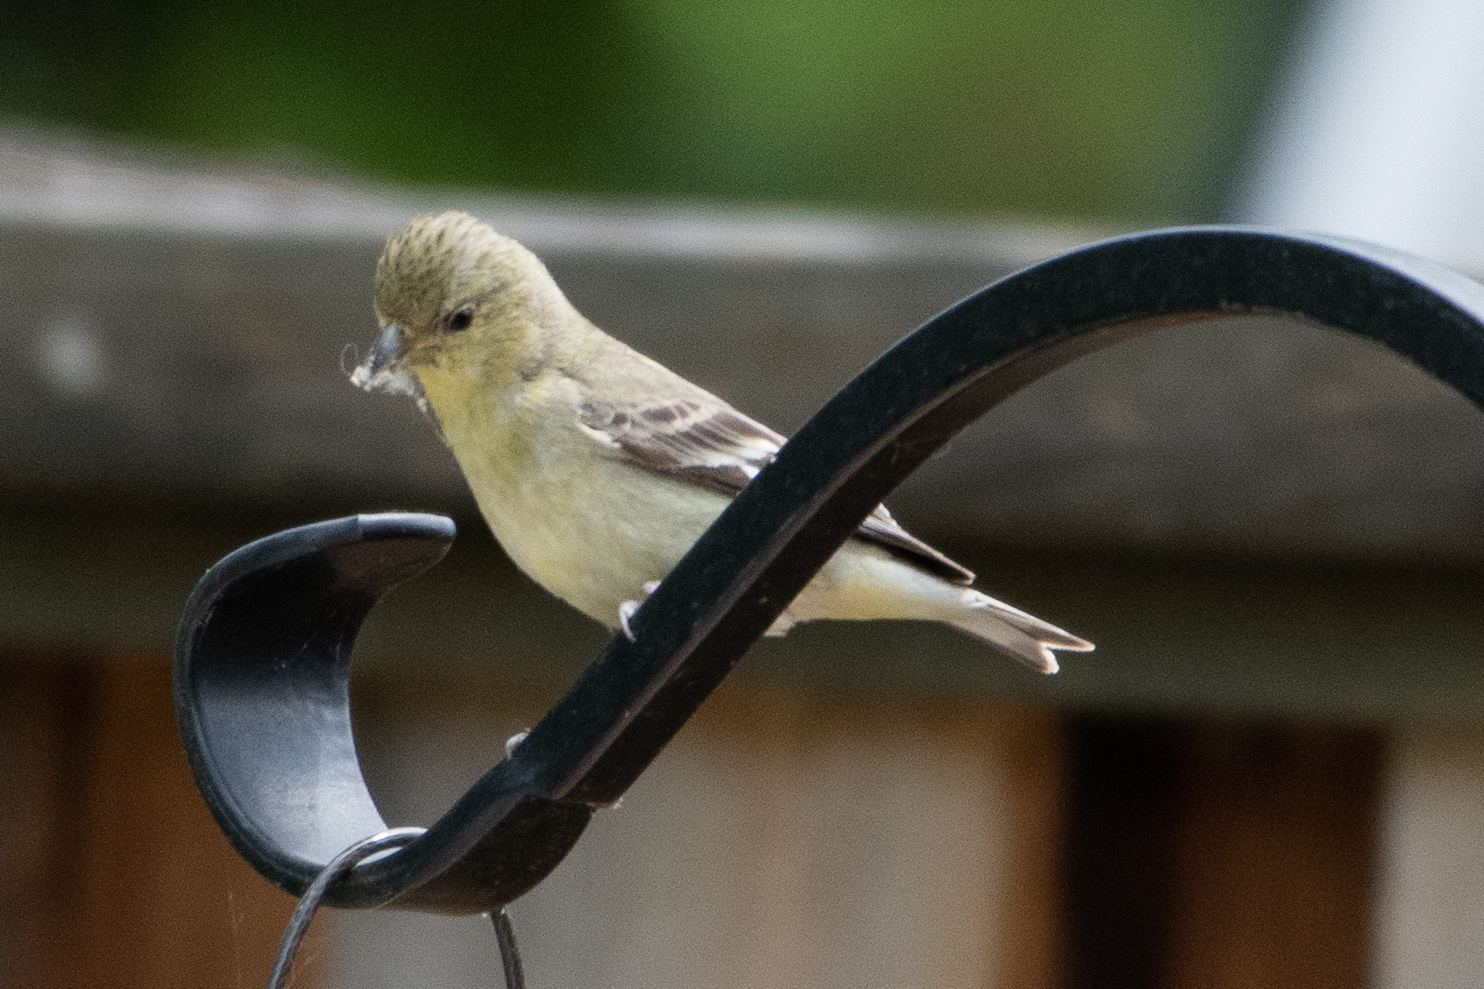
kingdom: Animalia
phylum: Chordata
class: Aves
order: Passeriformes
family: Fringillidae
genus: Spinus
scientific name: Spinus psaltria
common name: Lesser goldfinch
